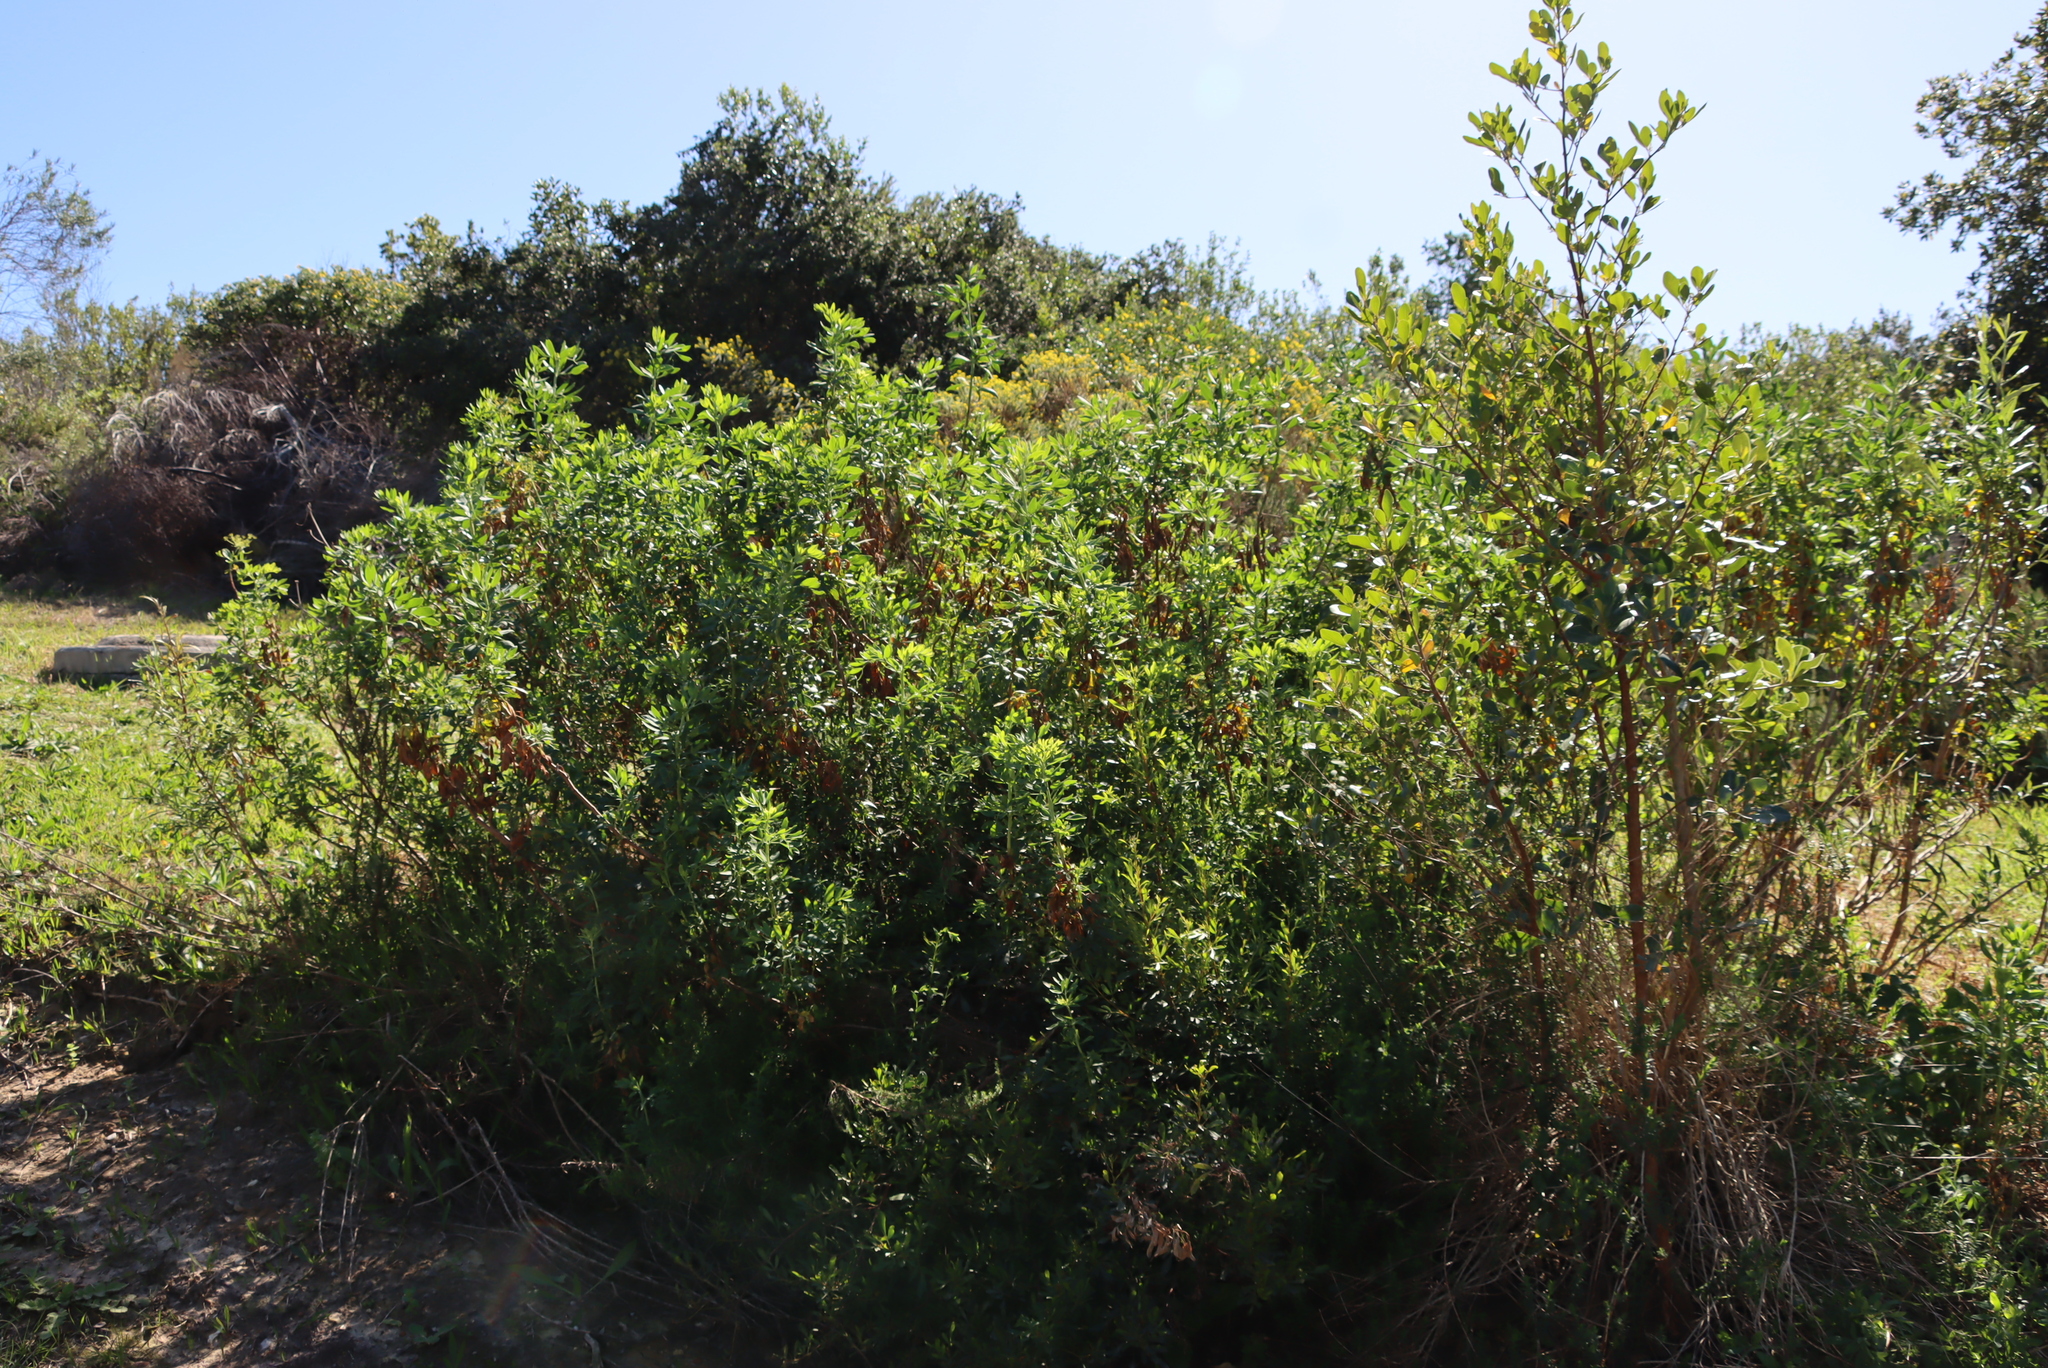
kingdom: Plantae
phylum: Tracheophyta
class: Magnoliopsida
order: Asterales
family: Asteraceae
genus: Nidorella
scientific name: Nidorella ivifolia
